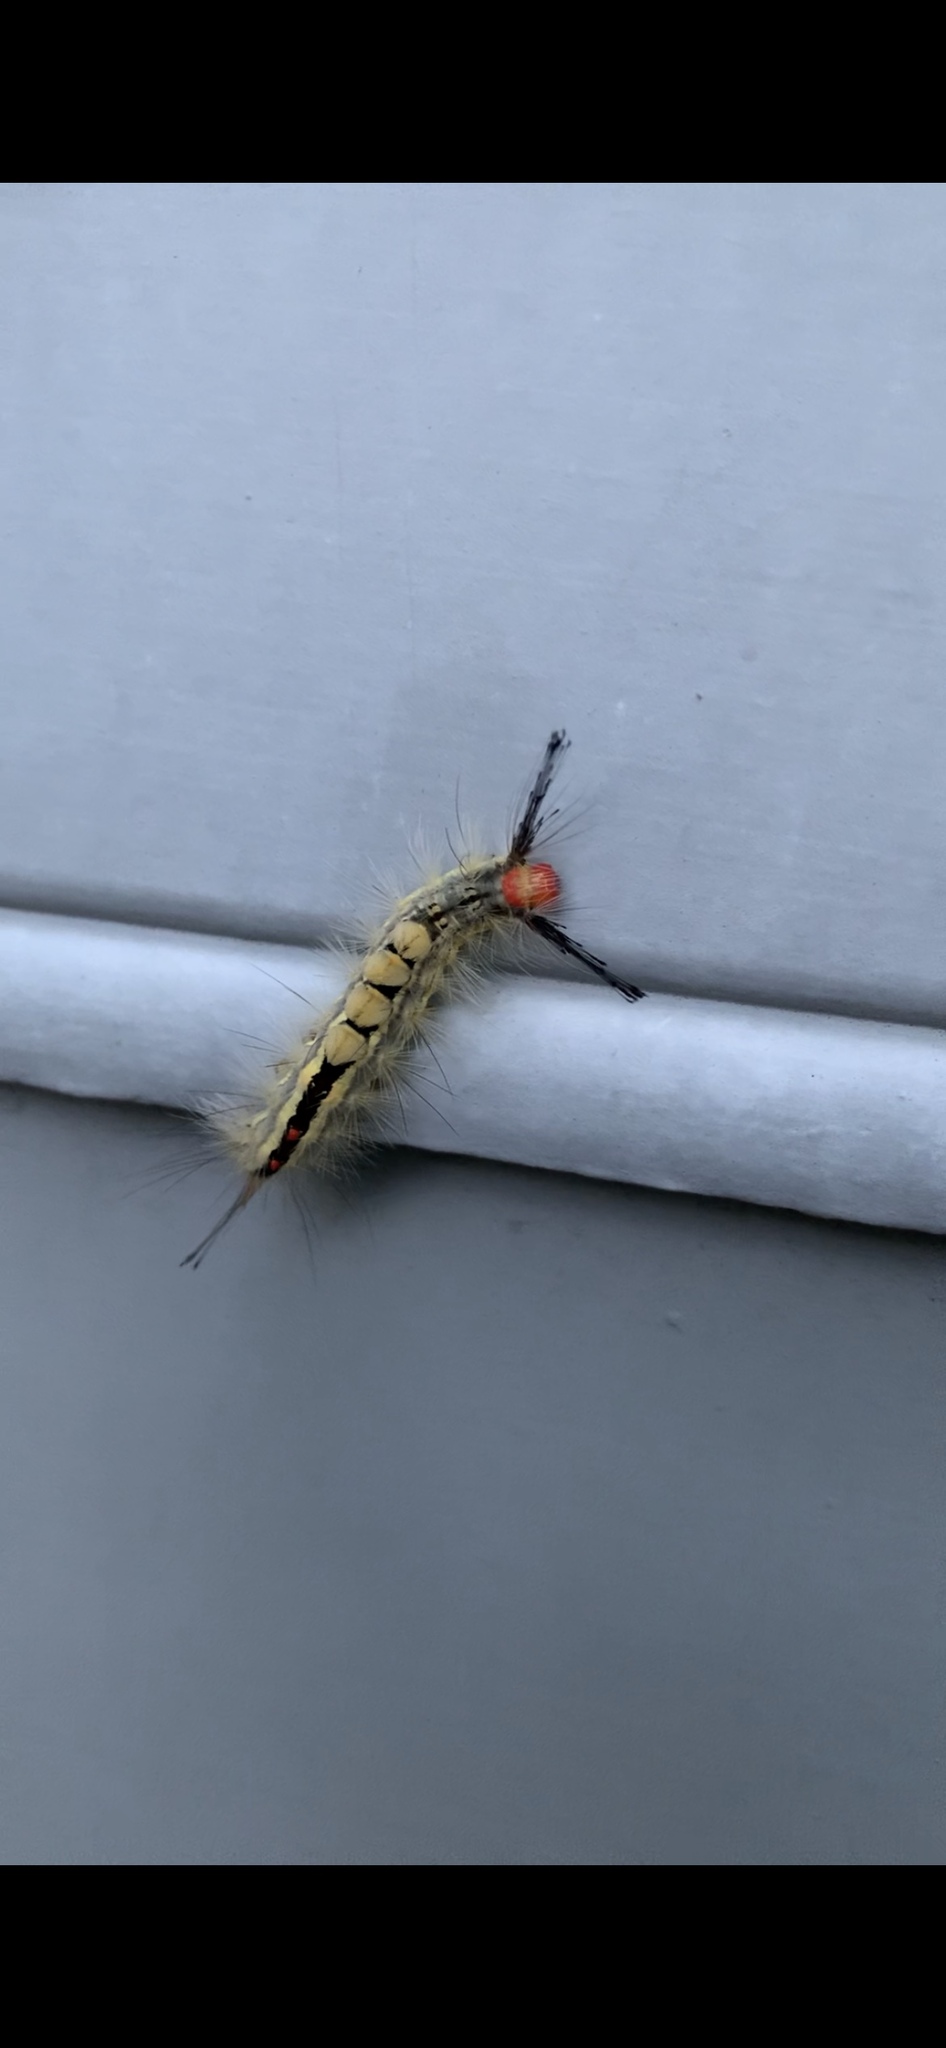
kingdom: Animalia
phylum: Arthropoda
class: Insecta
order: Lepidoptera
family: Erebidae
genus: Orgyia
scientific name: Orgyia leucostigma
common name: White-marked tussock moth
